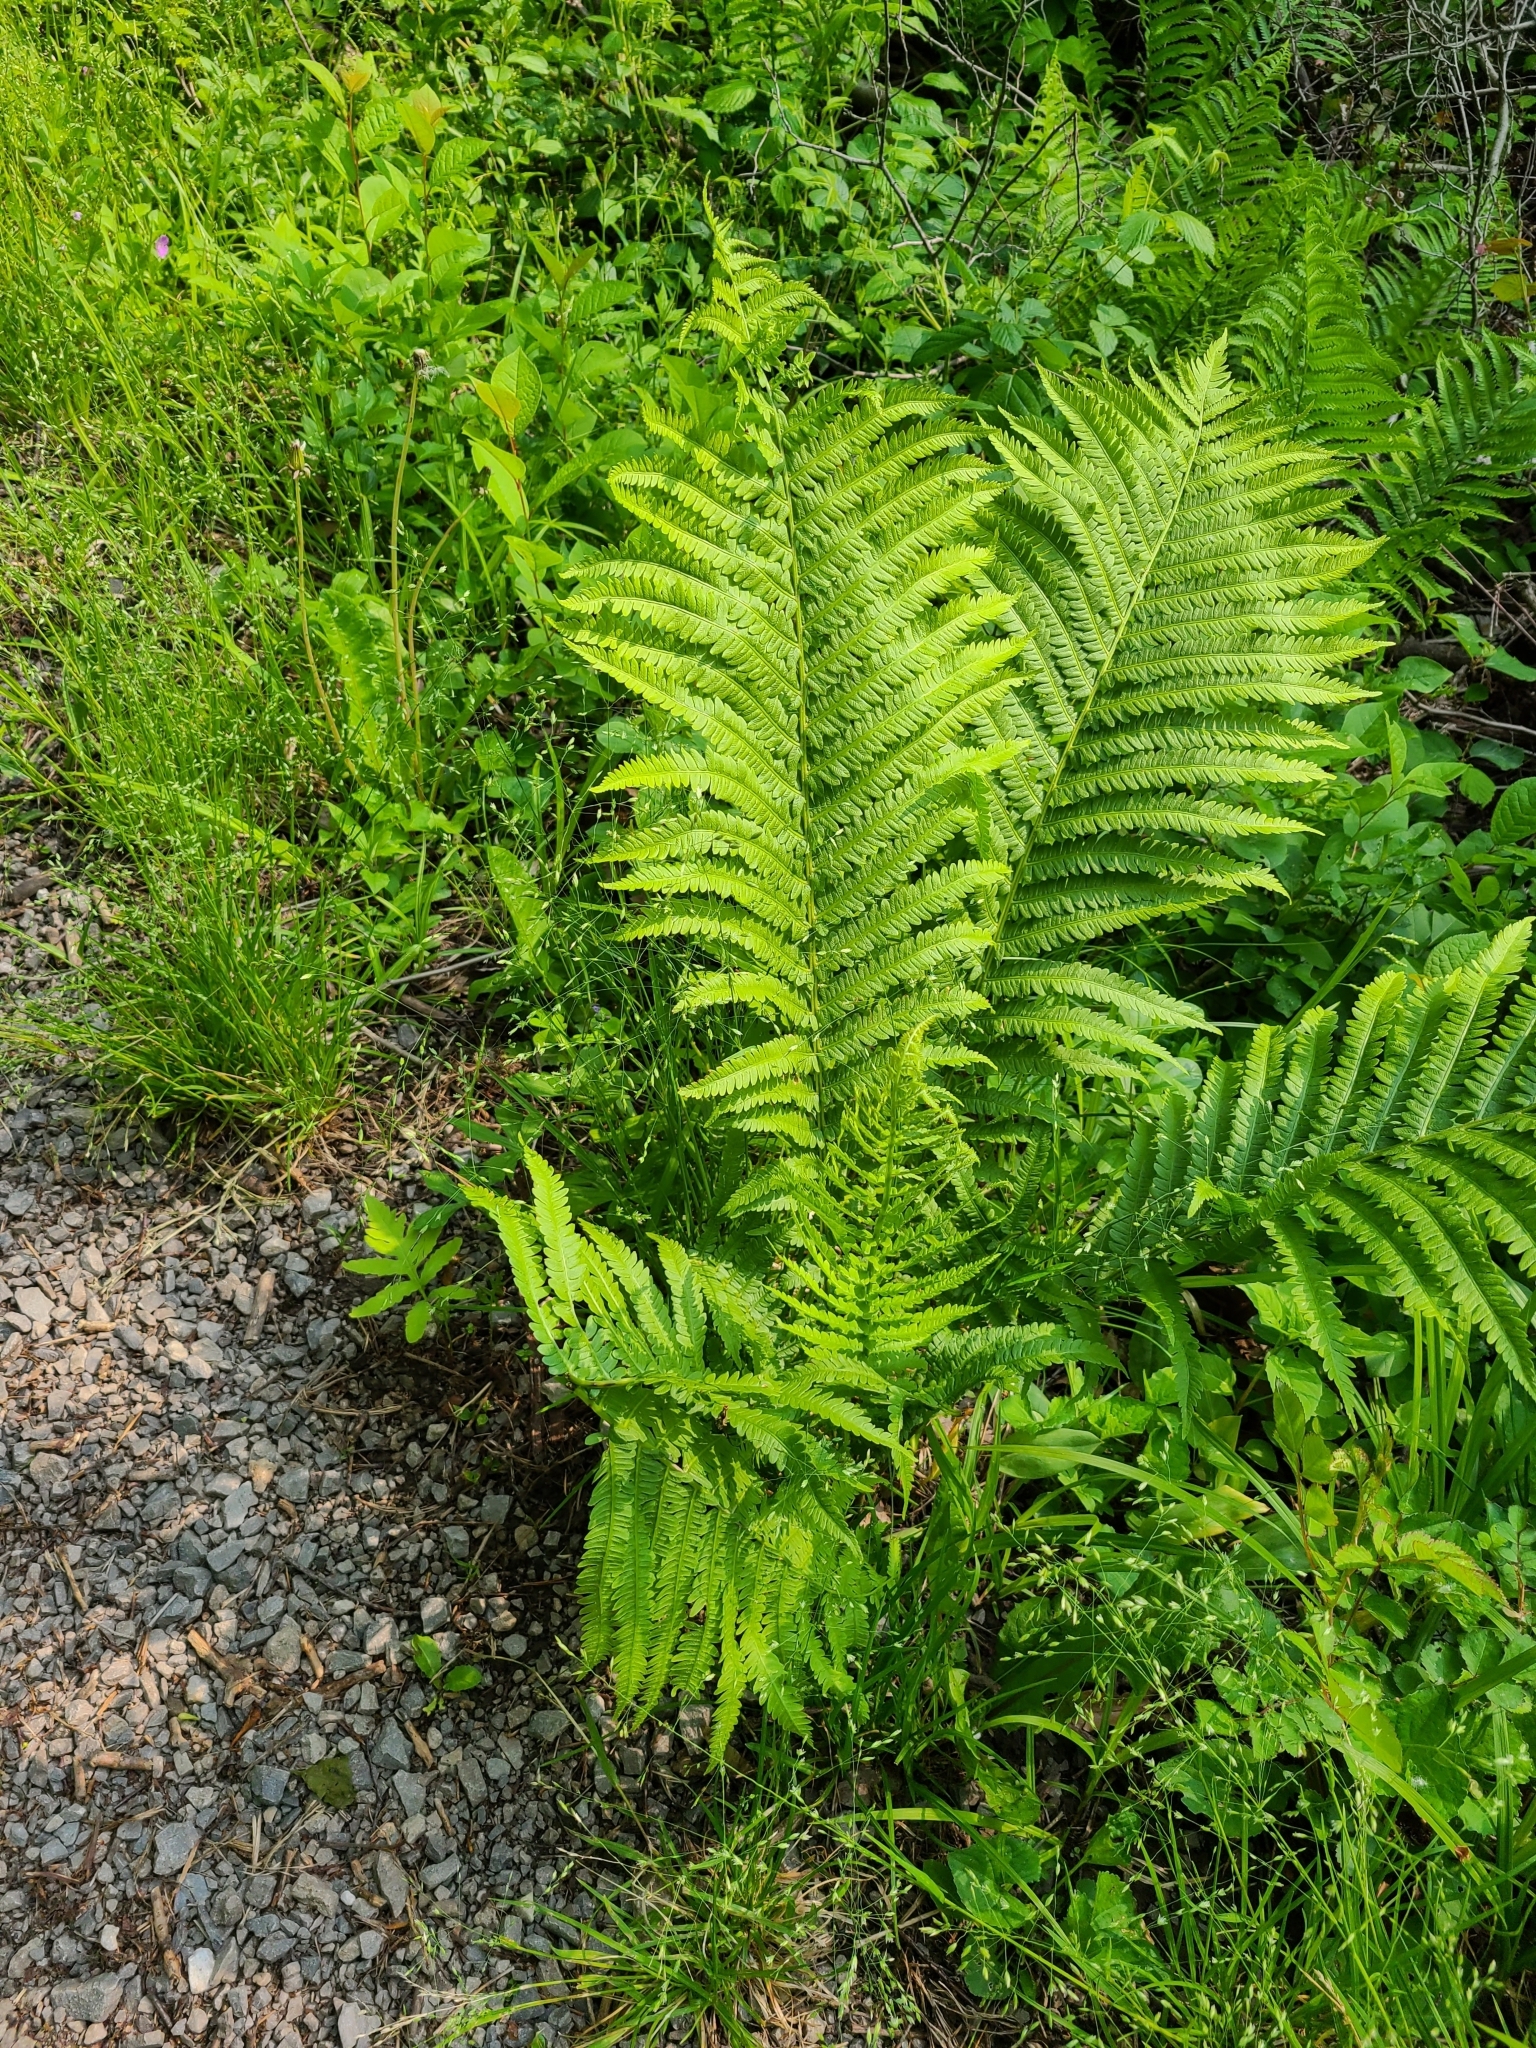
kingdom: Plantae
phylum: Tracheophyta
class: Polypodiopsida
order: Polypodiales
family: Onocleaceae
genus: Matteuccia
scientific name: Matteuccia struthiopteris
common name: Ostrich fern
